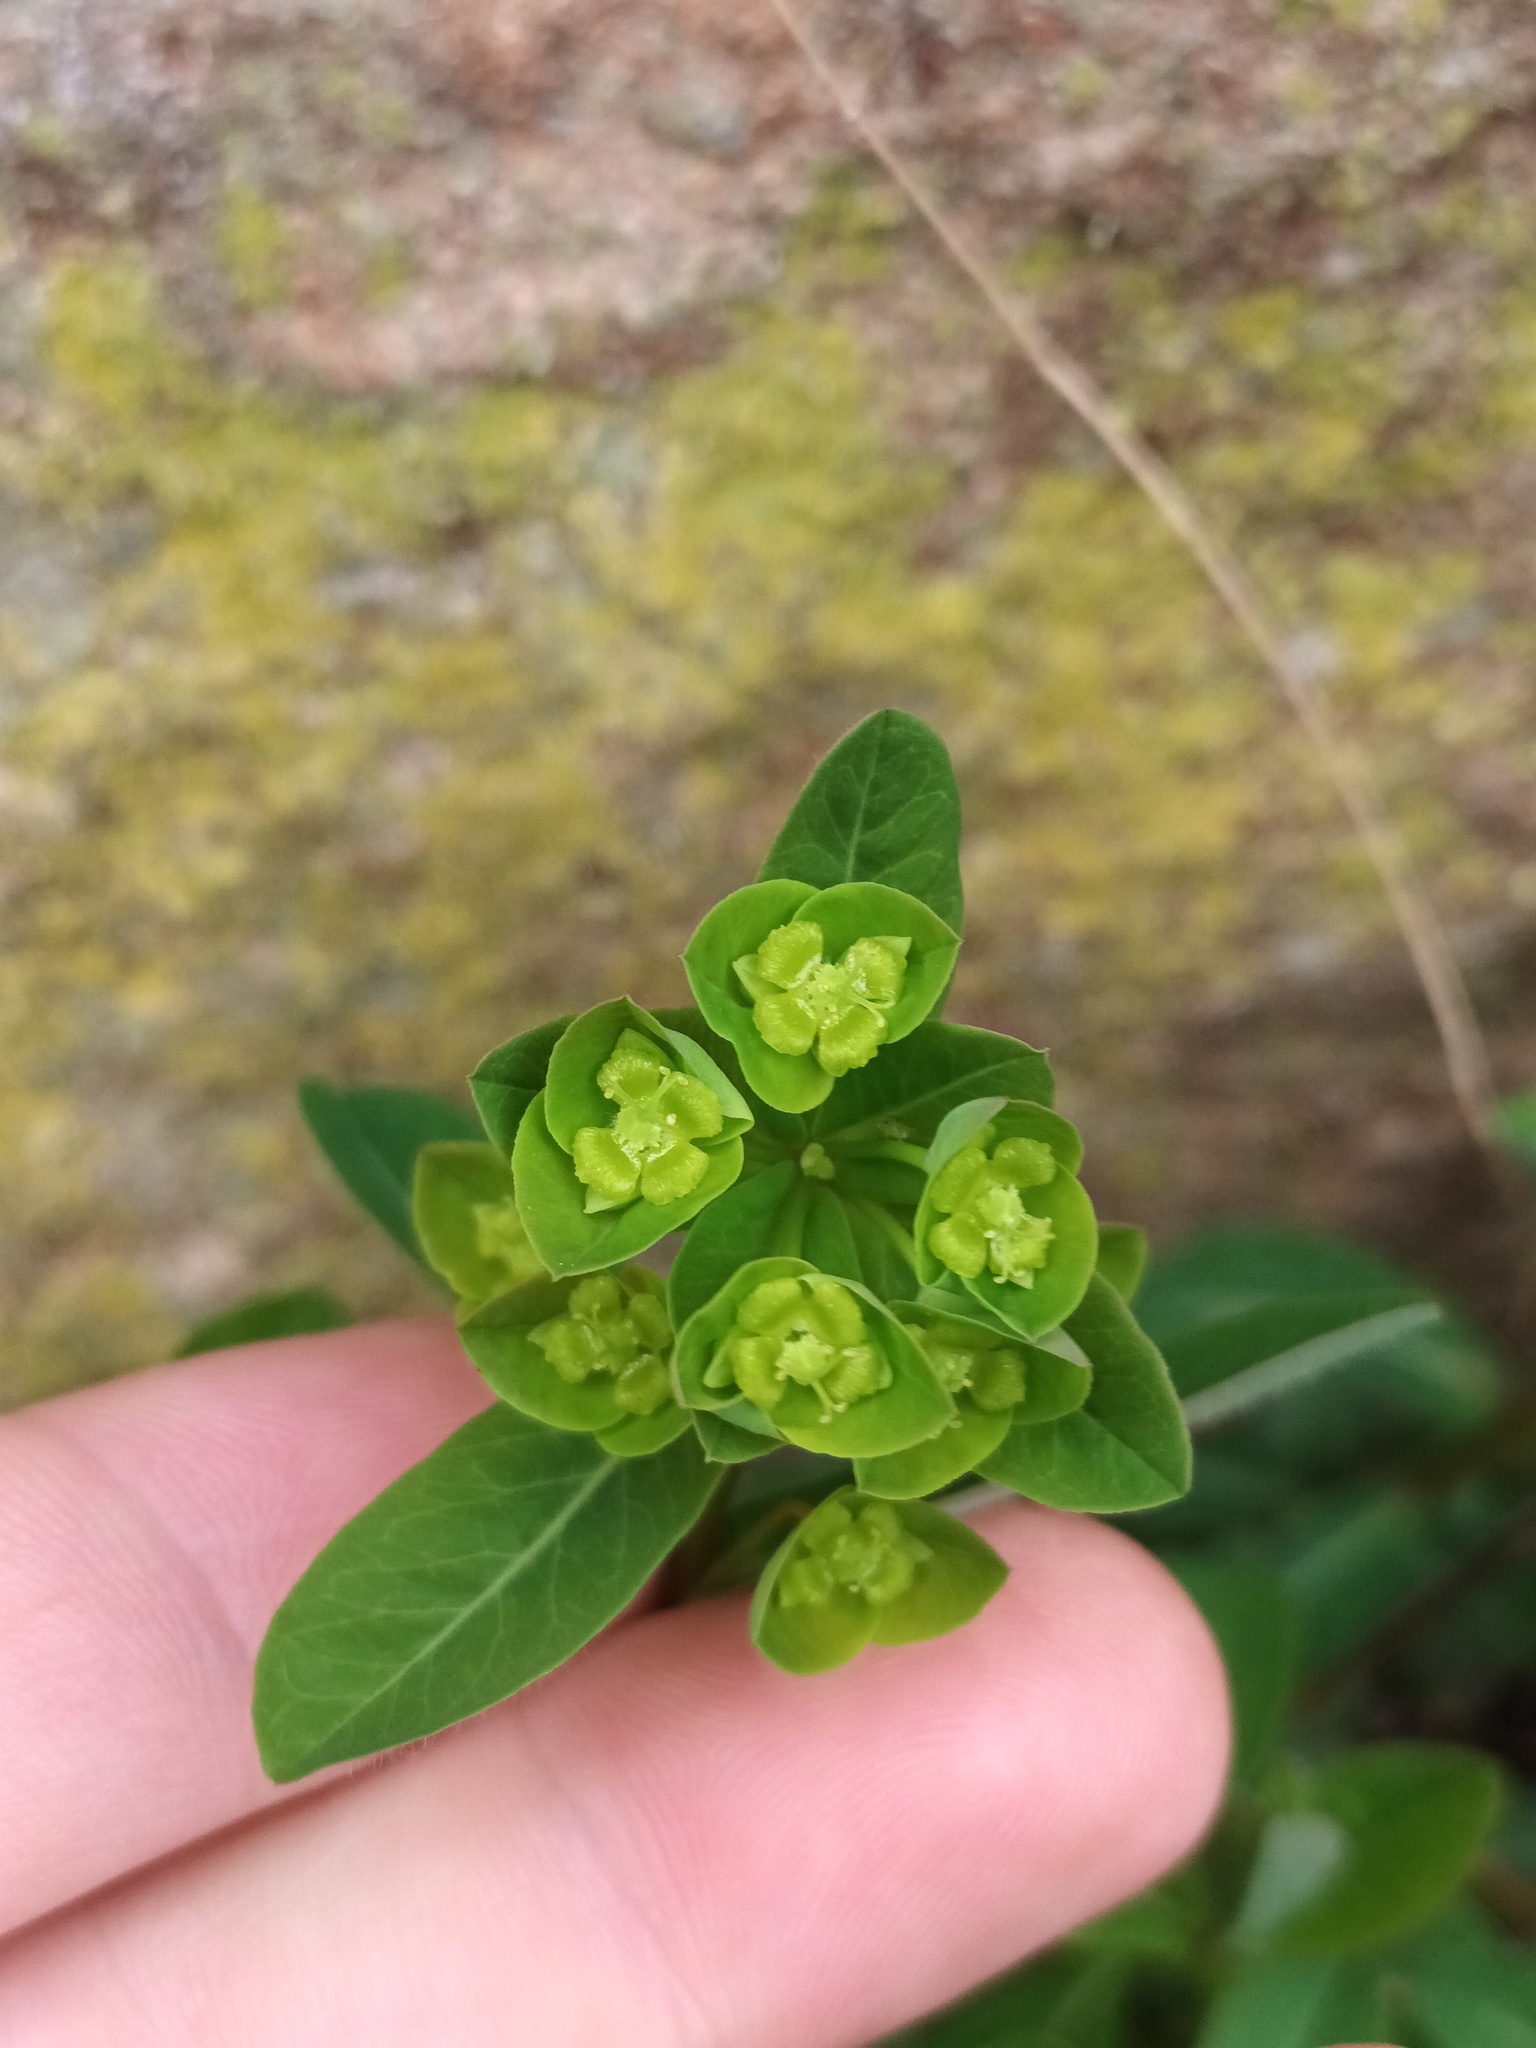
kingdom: Plantae
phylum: Tracheophyta
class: Magnoliopsida
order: Malpighiales
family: Euphorbiaceae
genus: Euphorbia
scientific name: Euphorbia helioscopia
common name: Sun spurge
